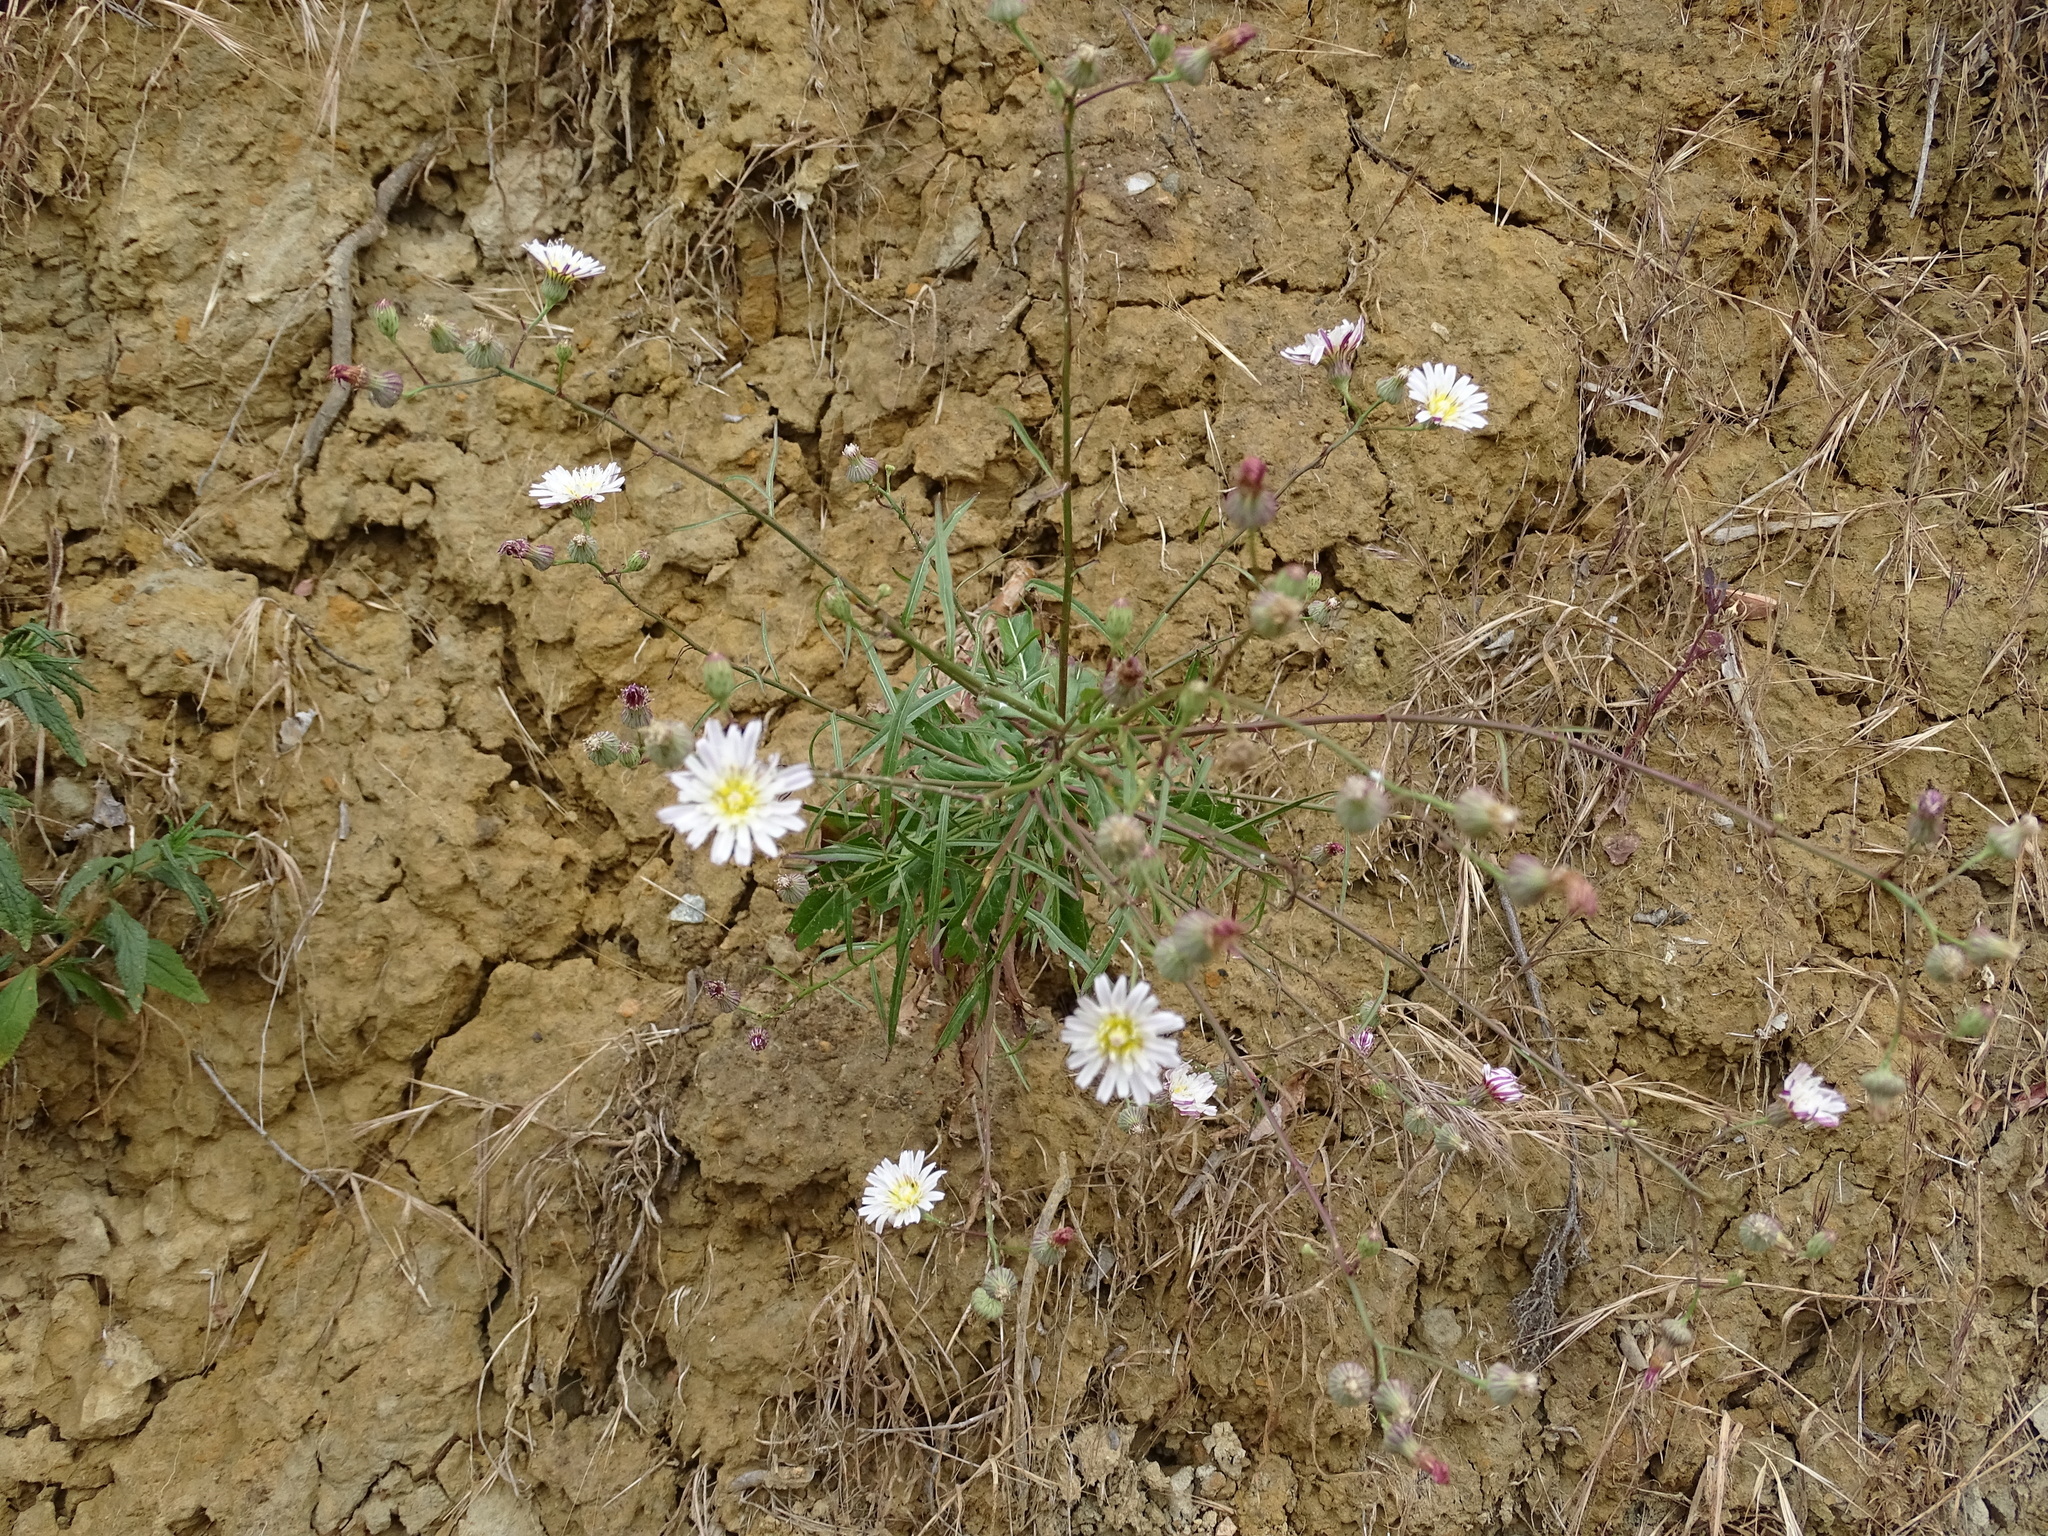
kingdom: Plantae
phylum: Tracheophyta
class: Magnoliopsida
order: Asterales
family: Asteraceae
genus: Malacothrix
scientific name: Malacothrix saxatilis
